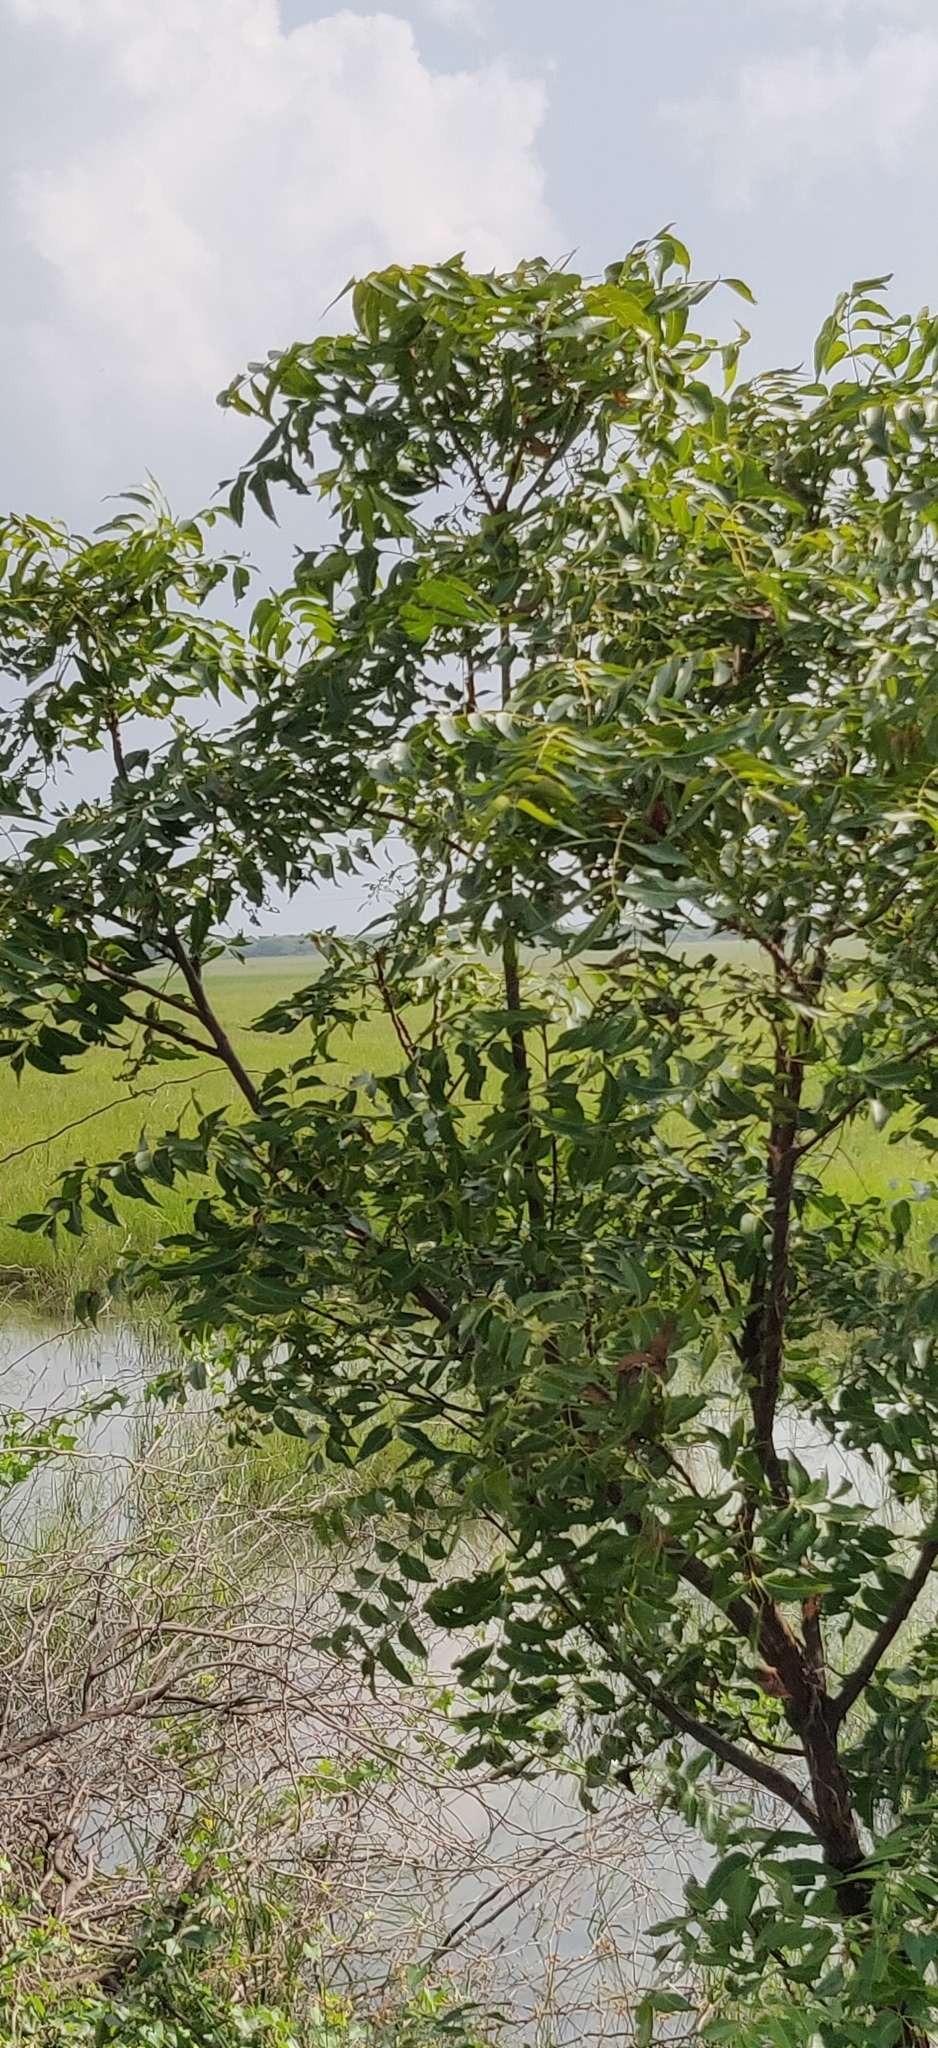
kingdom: Plantae
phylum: Tracheophyta
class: Magnoliopsida
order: Sapindales
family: Meliaceae
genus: Azadirachta
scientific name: Azadirachta indica
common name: Neem
